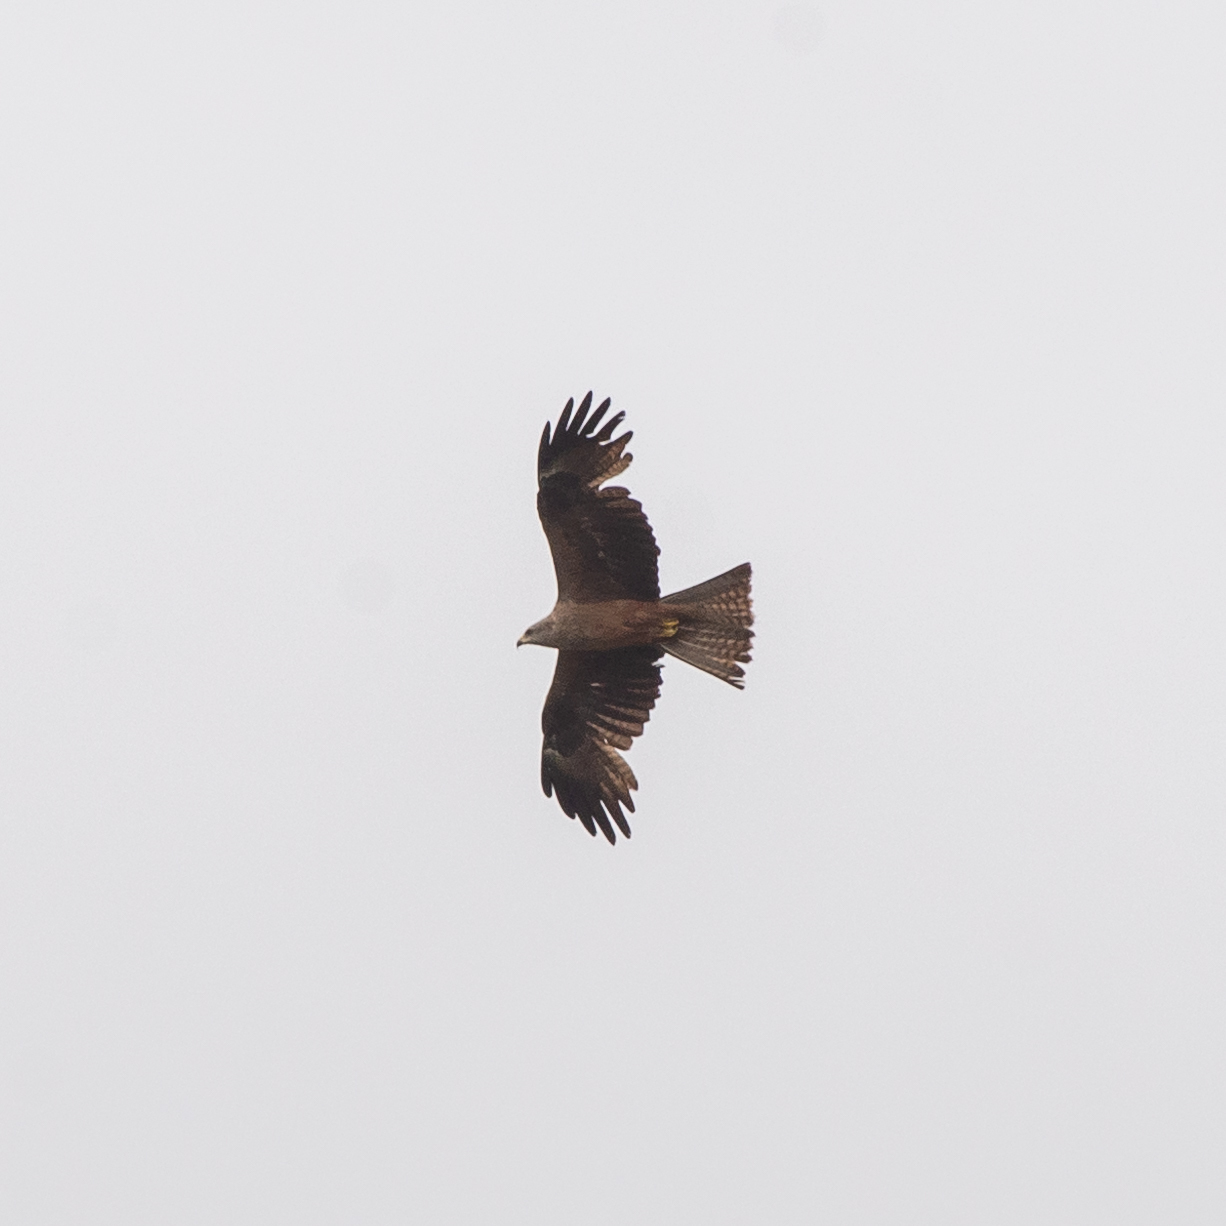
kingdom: Animalia
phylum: Chordata
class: Aves
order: Accipitriformes
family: Accipitridae
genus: Milvus
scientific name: Milvus migrans
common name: Black kite
